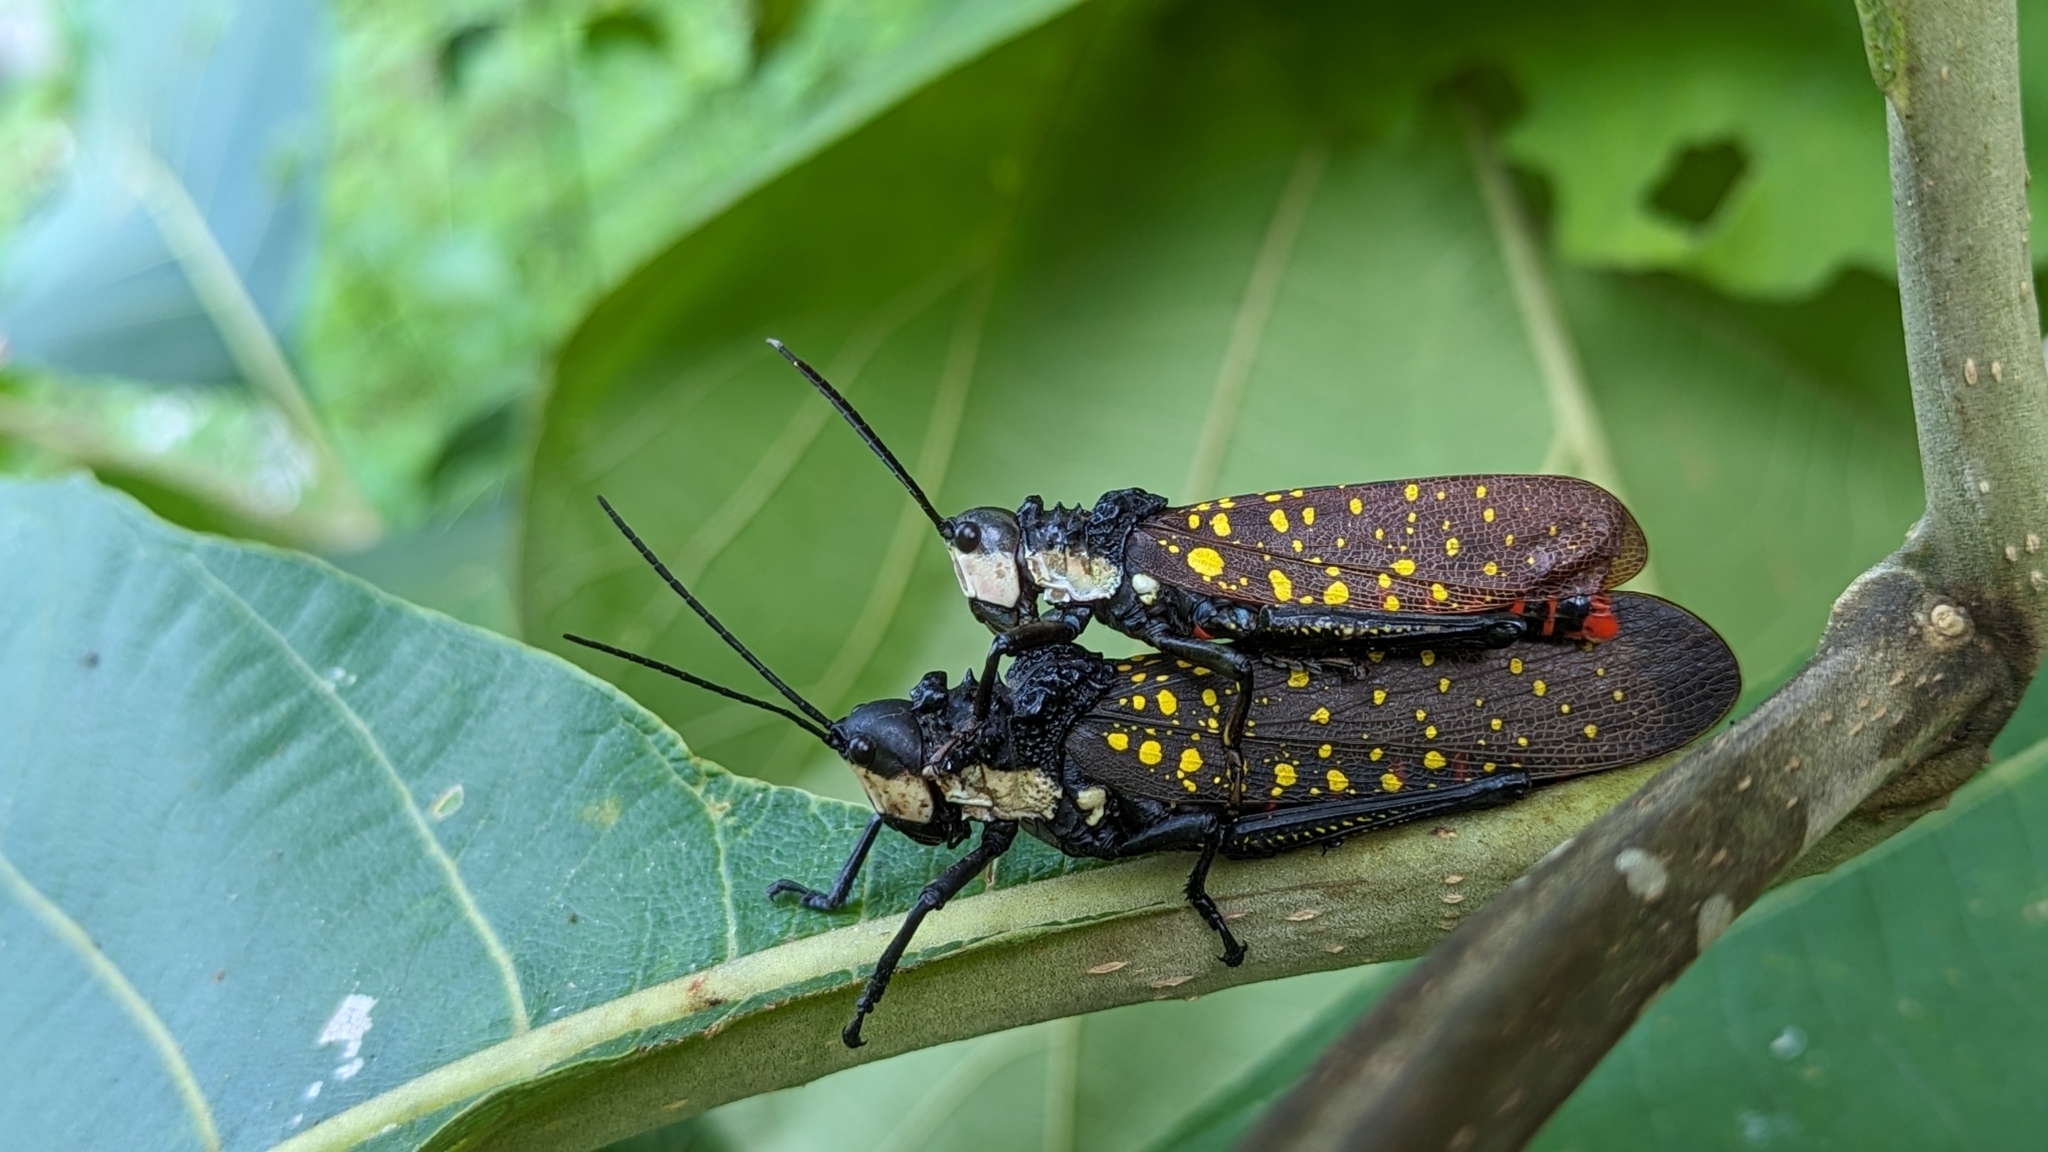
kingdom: Animalia
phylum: Arthropoda
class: Insecta
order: Orthoptera
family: Pyrgomorphidae
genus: Aularches
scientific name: Aularches miliaris
